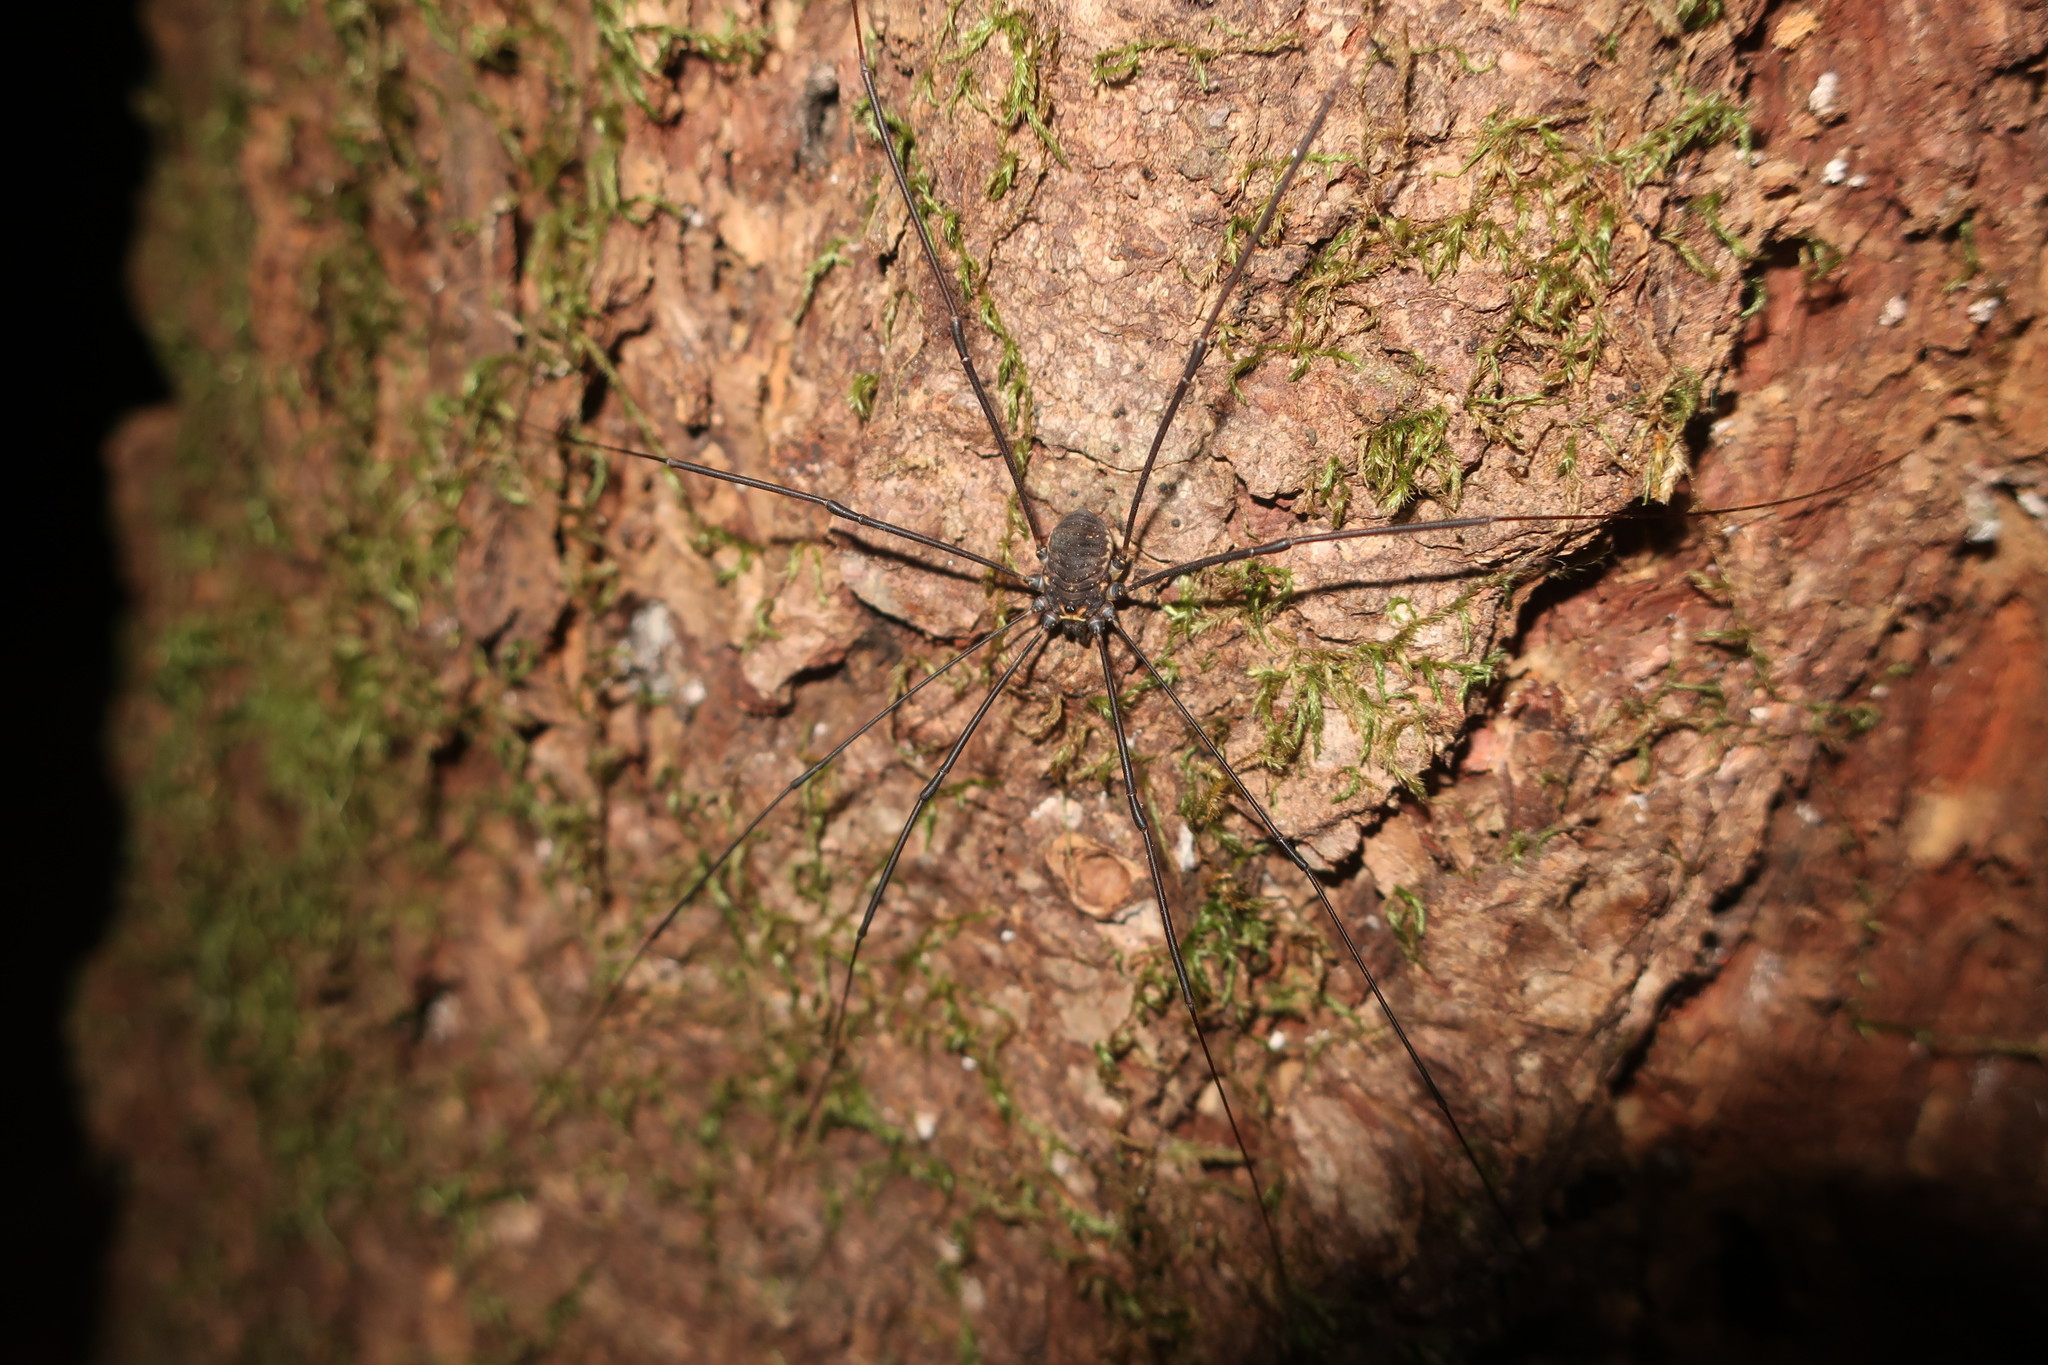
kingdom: Animalia
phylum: Arthropoda
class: Arachnida
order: Opiliones
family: Sclerosomatidae
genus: Leiobunum
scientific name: Leiobunum exilipes
